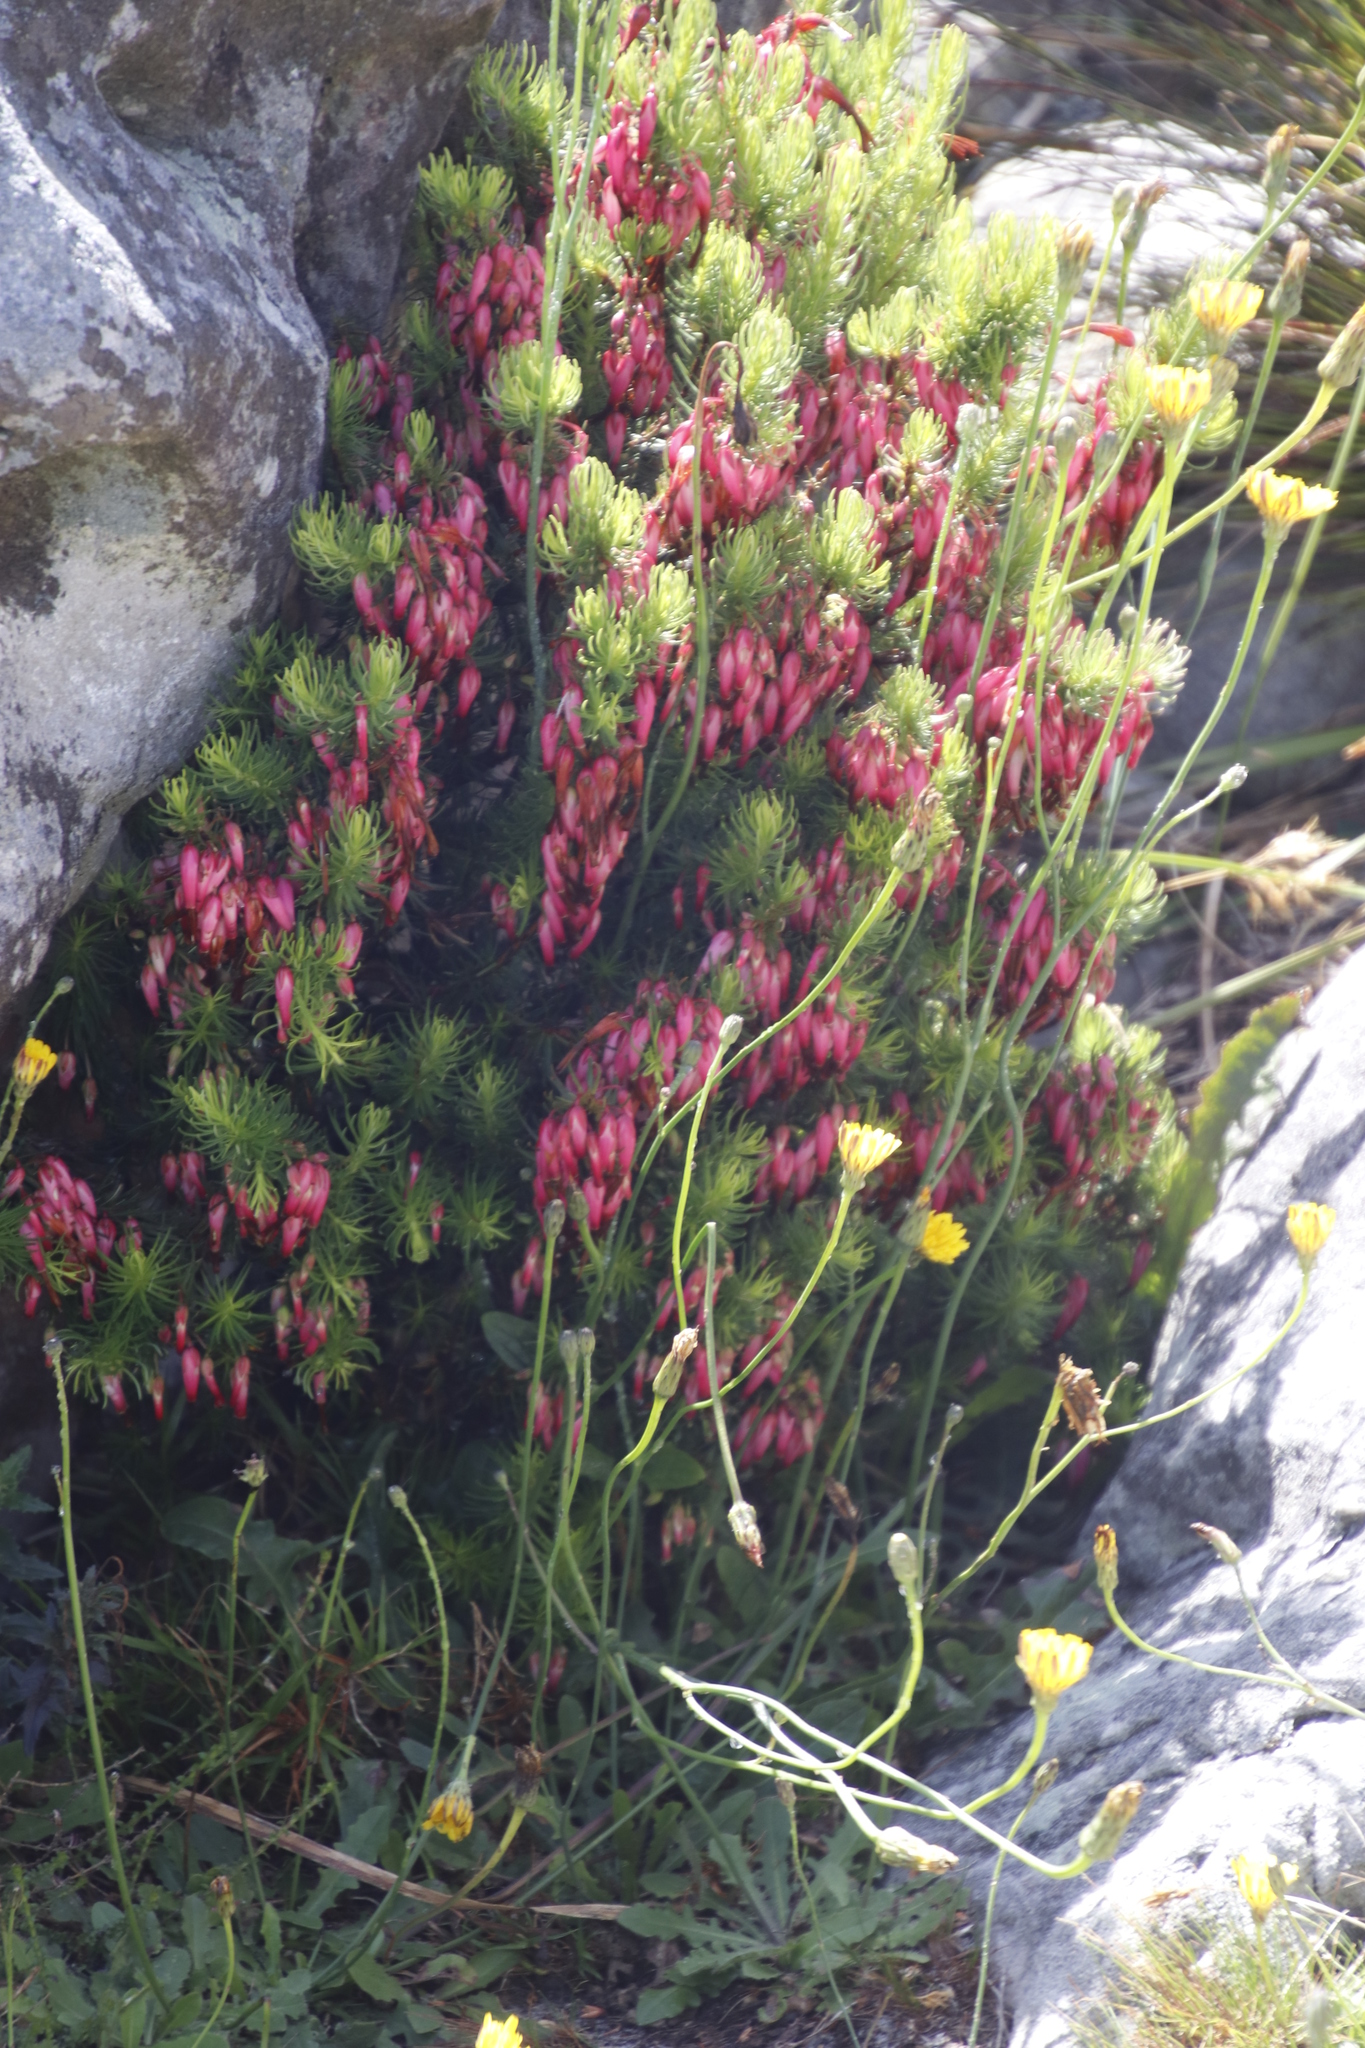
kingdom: Plantae
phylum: Tracheophyta
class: Magnoliopsida
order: Ericales
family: Ericaceae
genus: Erica
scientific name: Erica plukenetii
